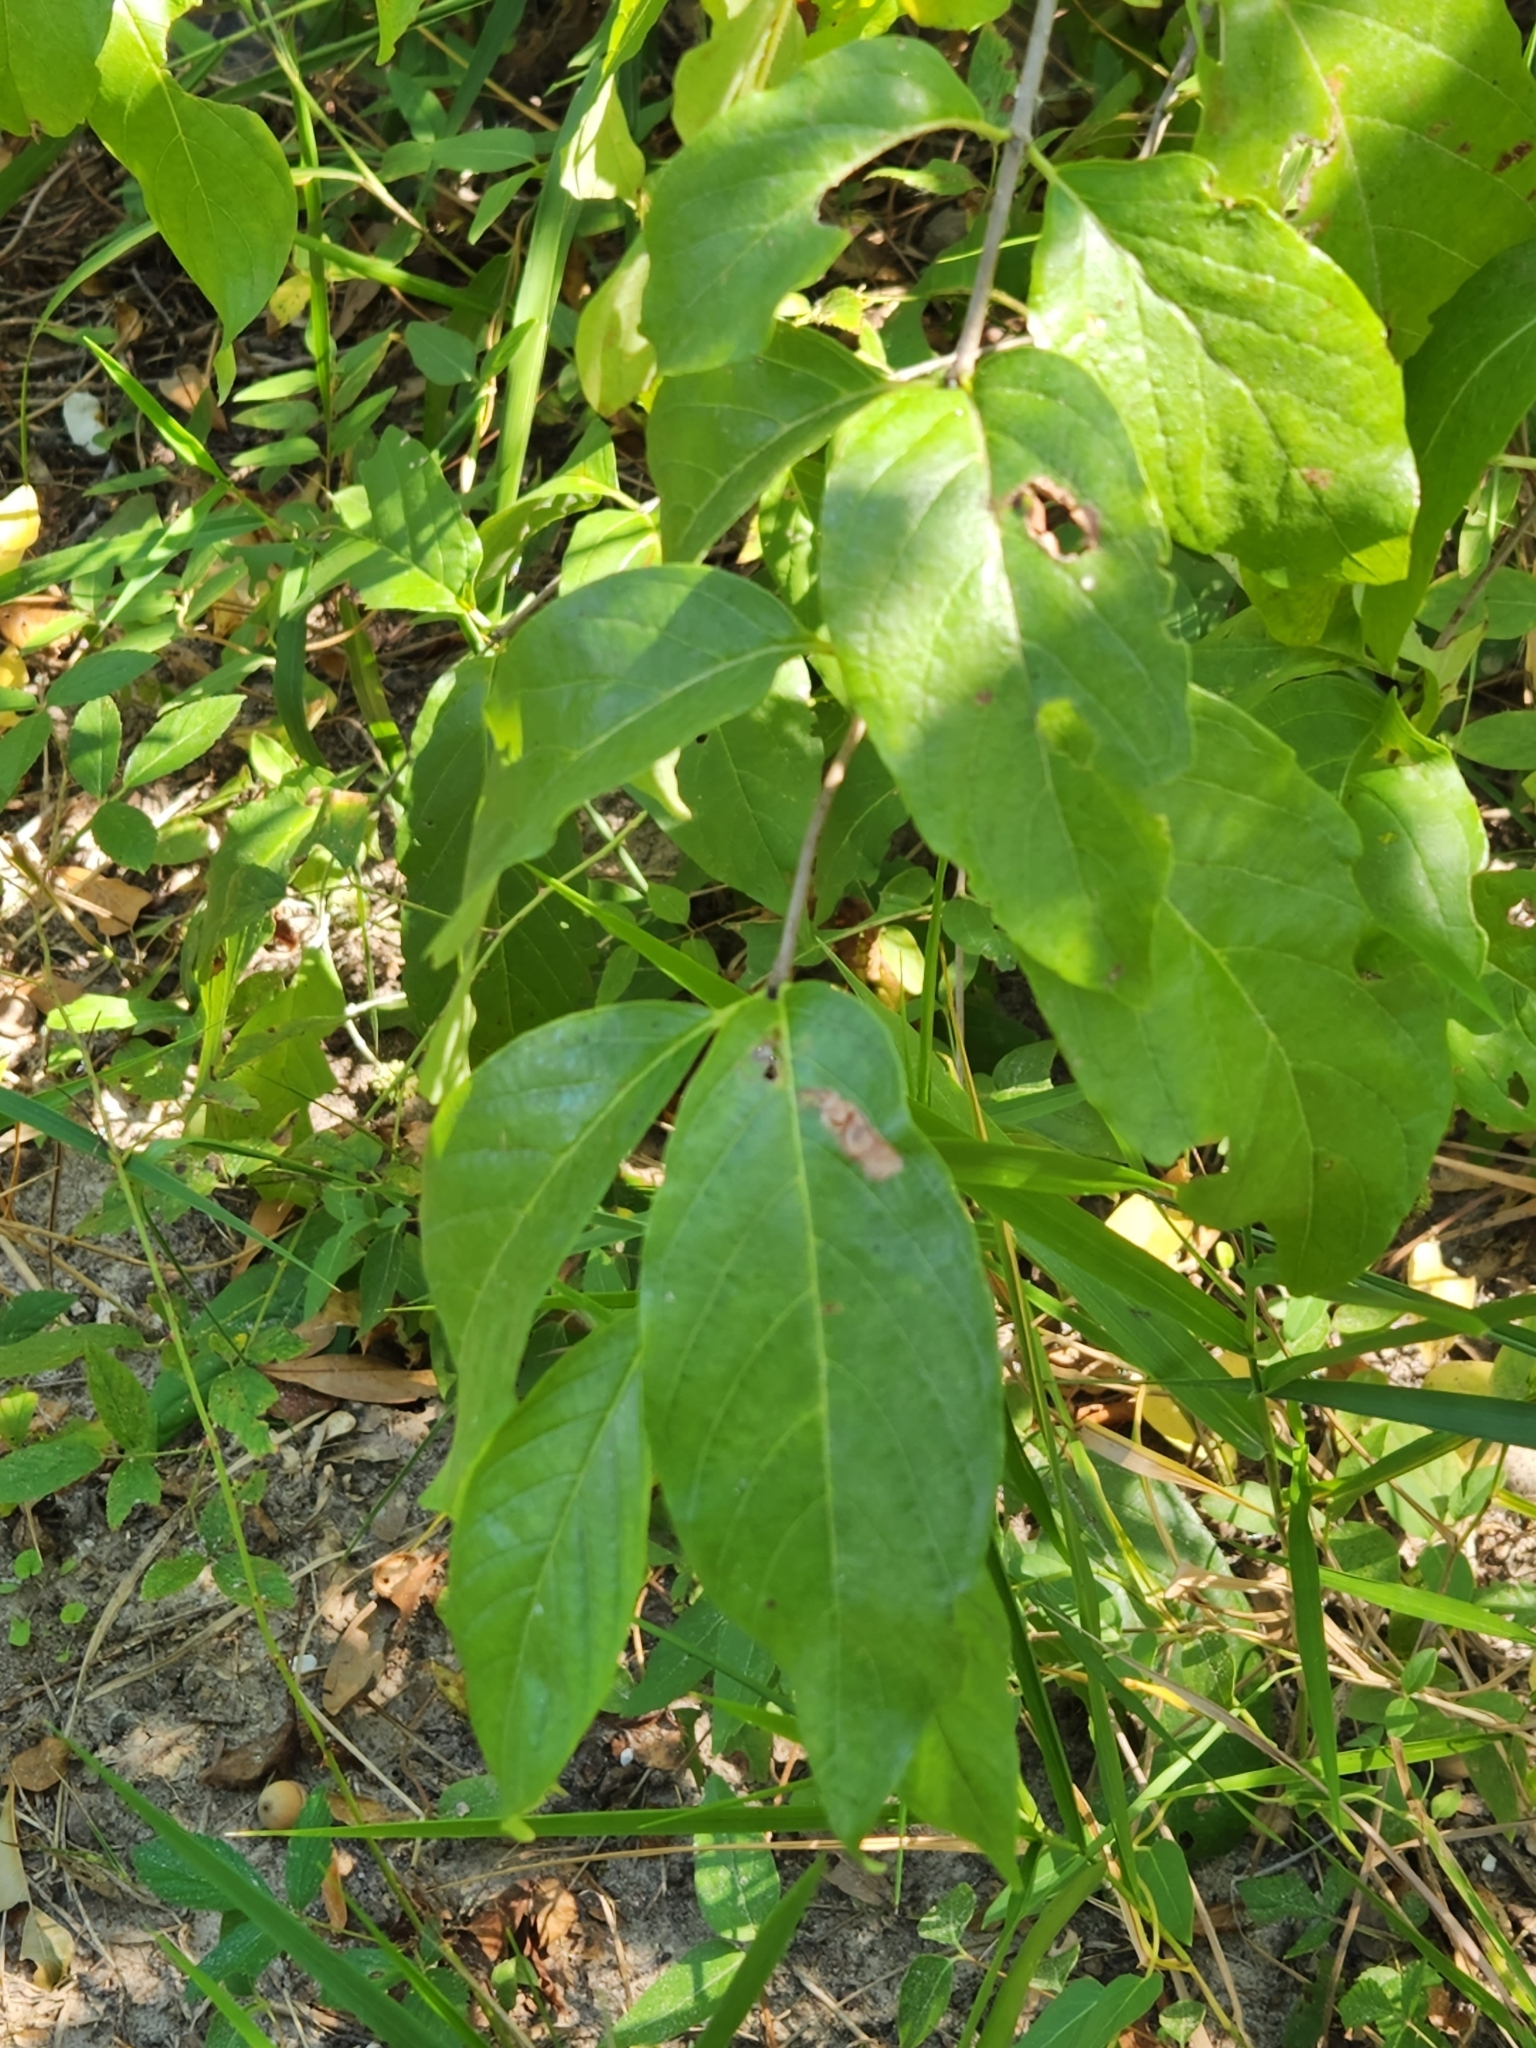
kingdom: Plantae
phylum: Tracheophyta
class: Magnoliopsida
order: Gentianales
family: Rubiaceae
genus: Cephalanthus
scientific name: Cephalanthus occidentalis
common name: Button-willow
